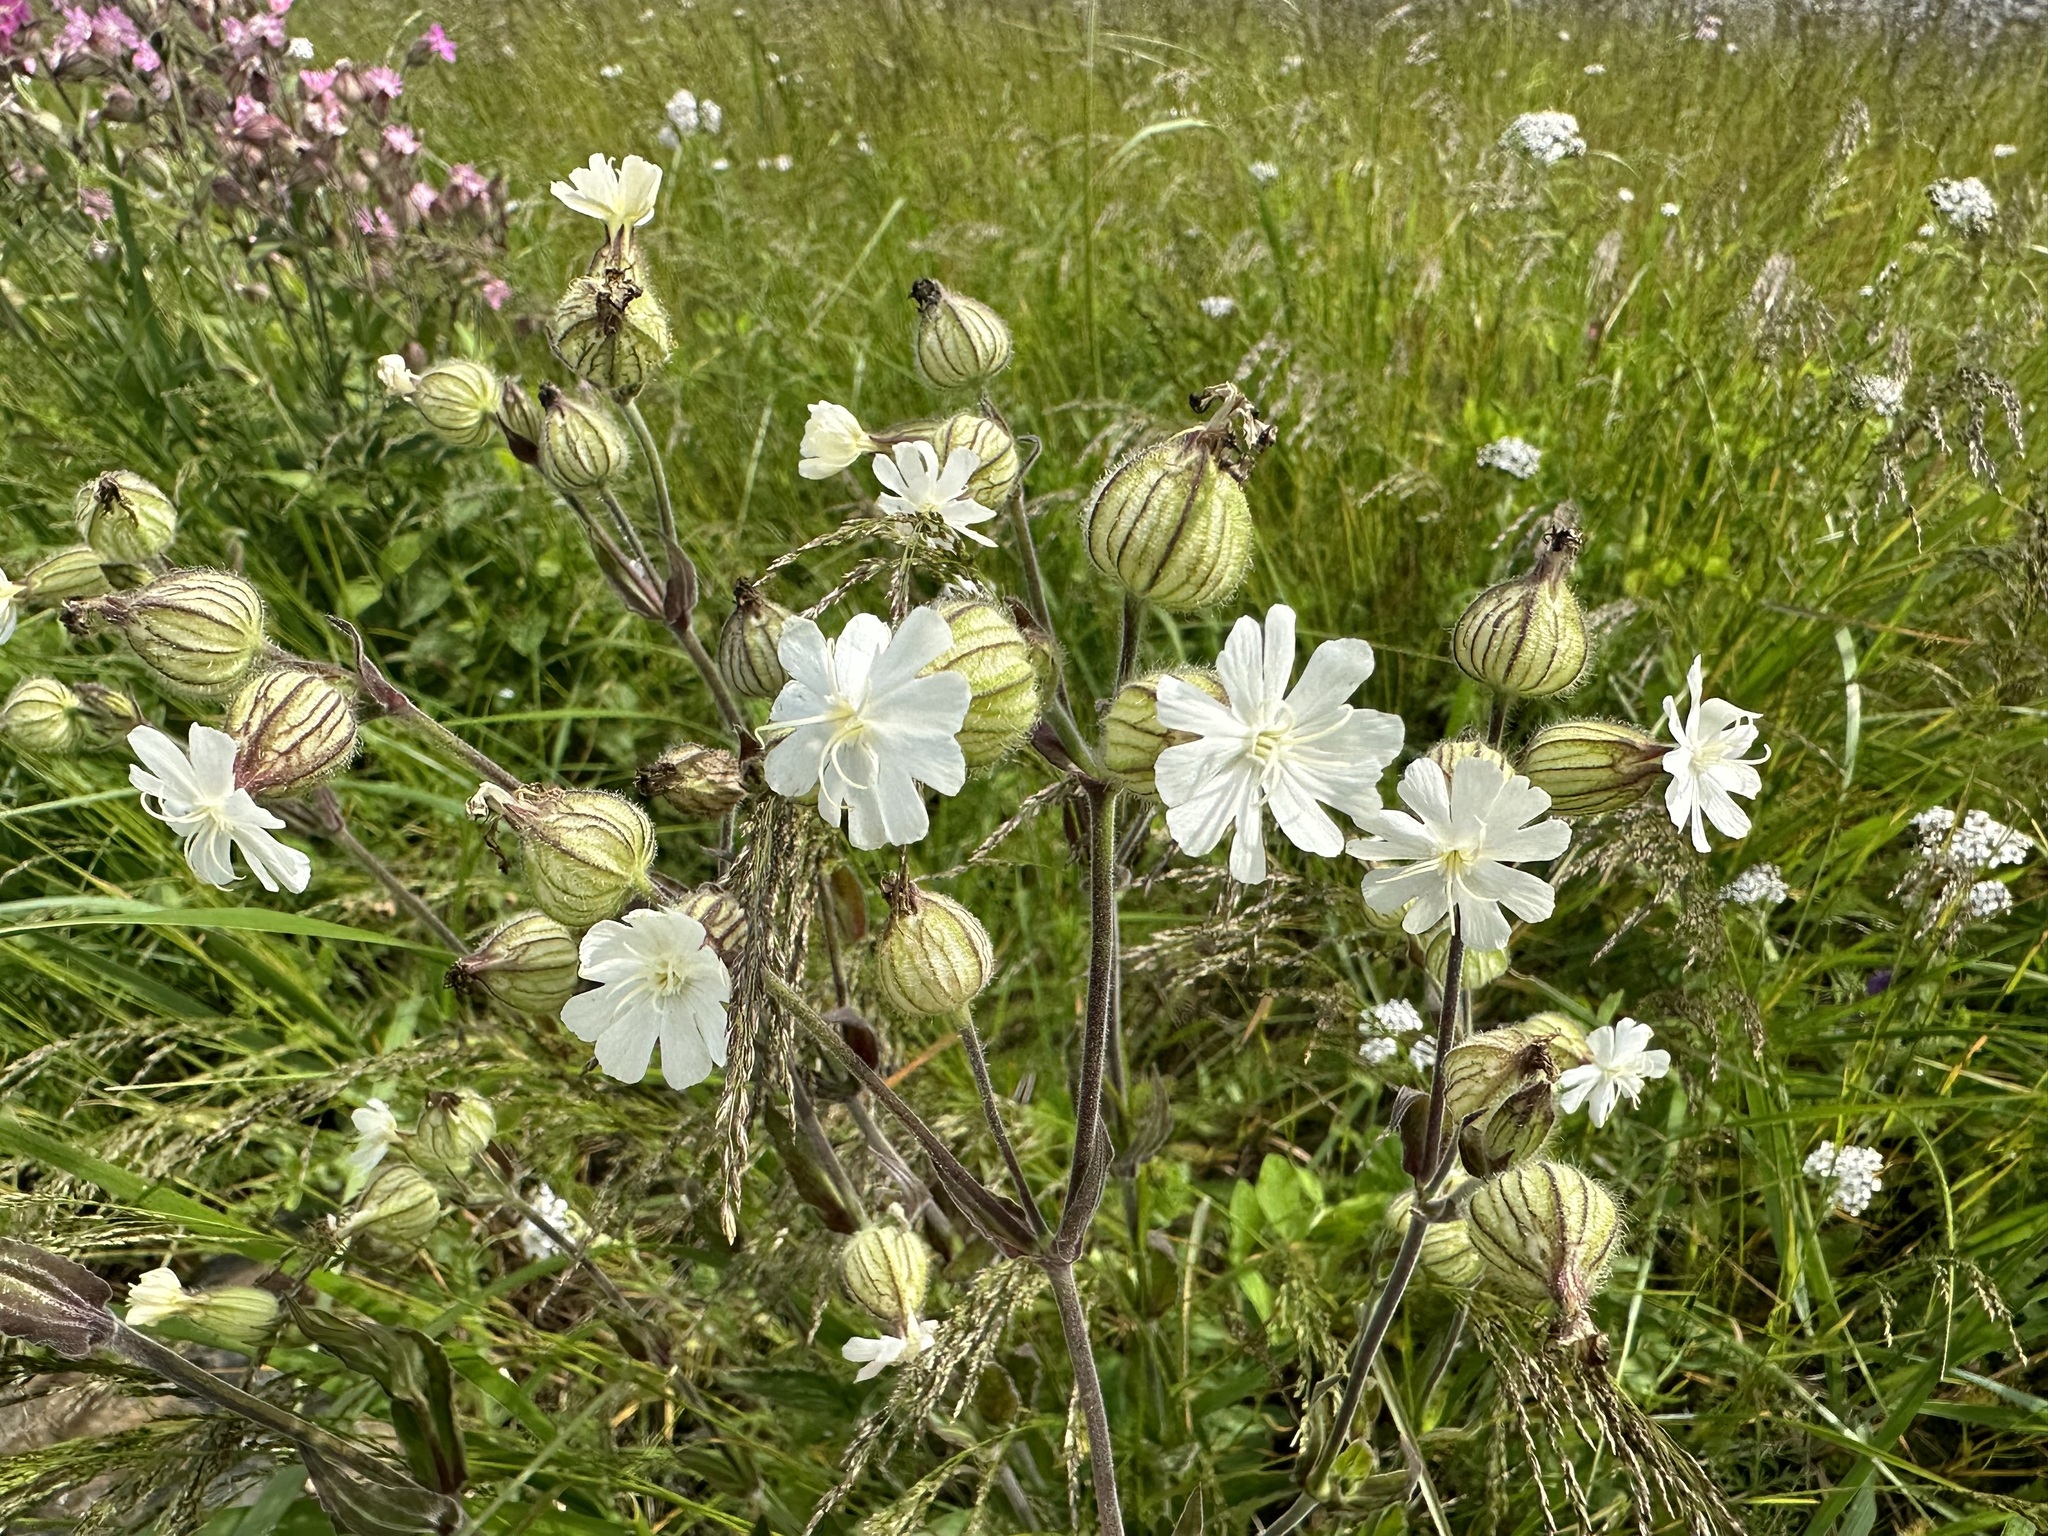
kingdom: Plantae
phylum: Tracheophyta
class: Magnoliopsida
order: Caryophyllales
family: Caryophyllaceae
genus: Silene
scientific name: Silene latifolia
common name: White campion
